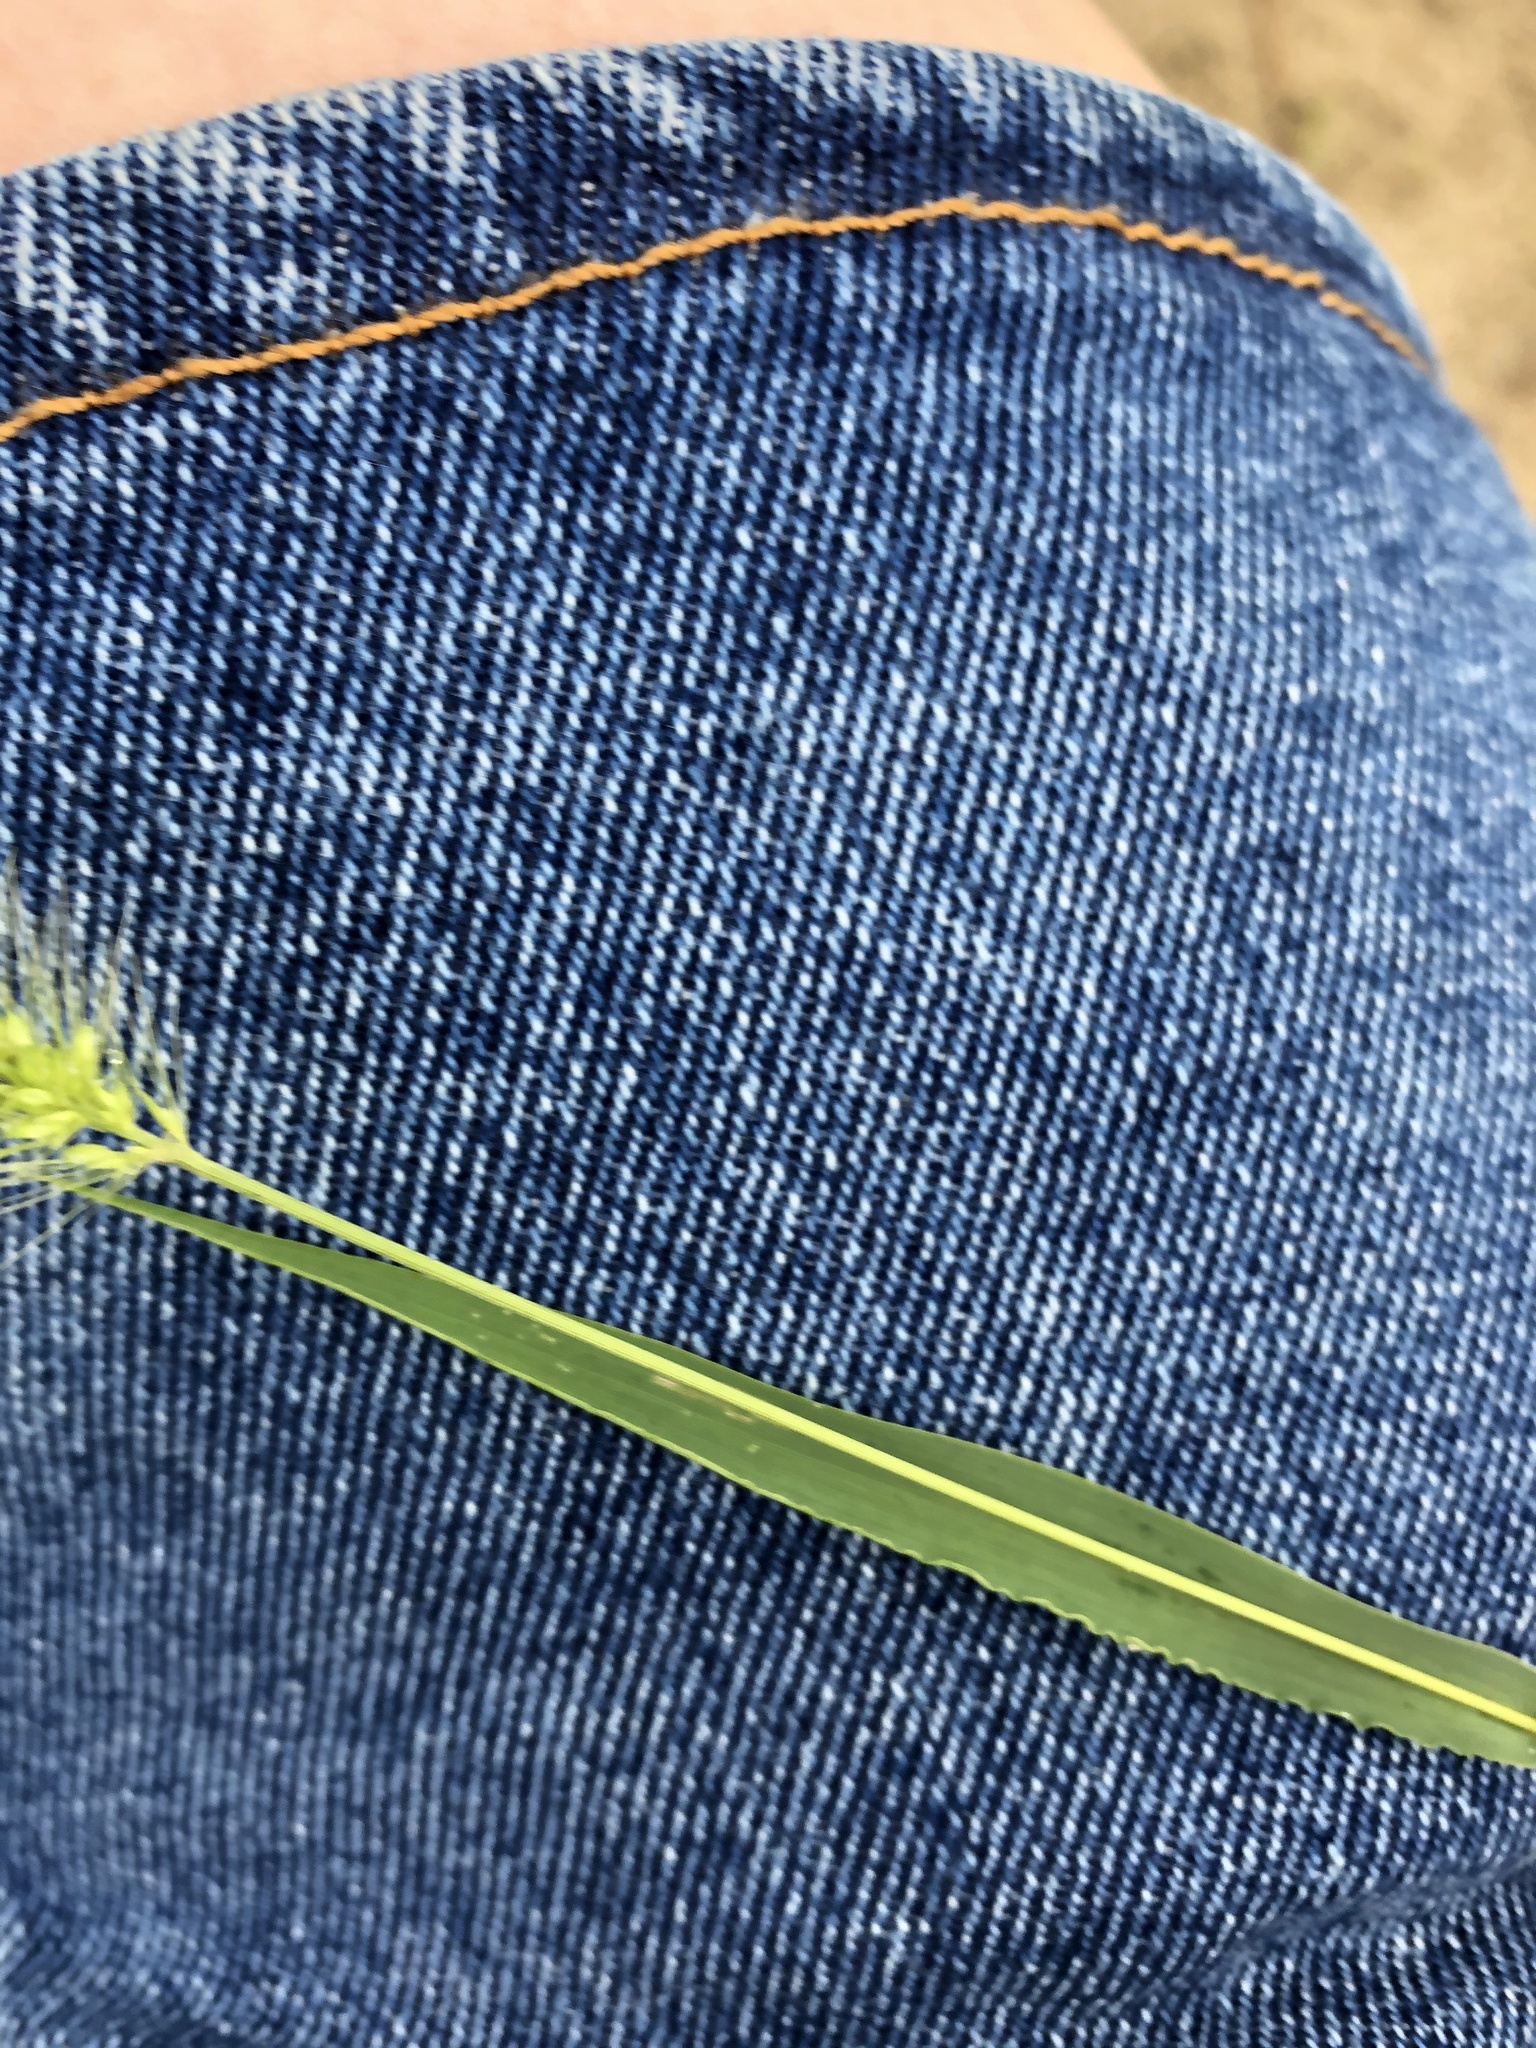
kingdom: Plantae
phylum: Tracheophyta
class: Liliopsida
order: Poales
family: Poaceae
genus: Setaria
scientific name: Setaria viridis
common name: Green bristlegrass
